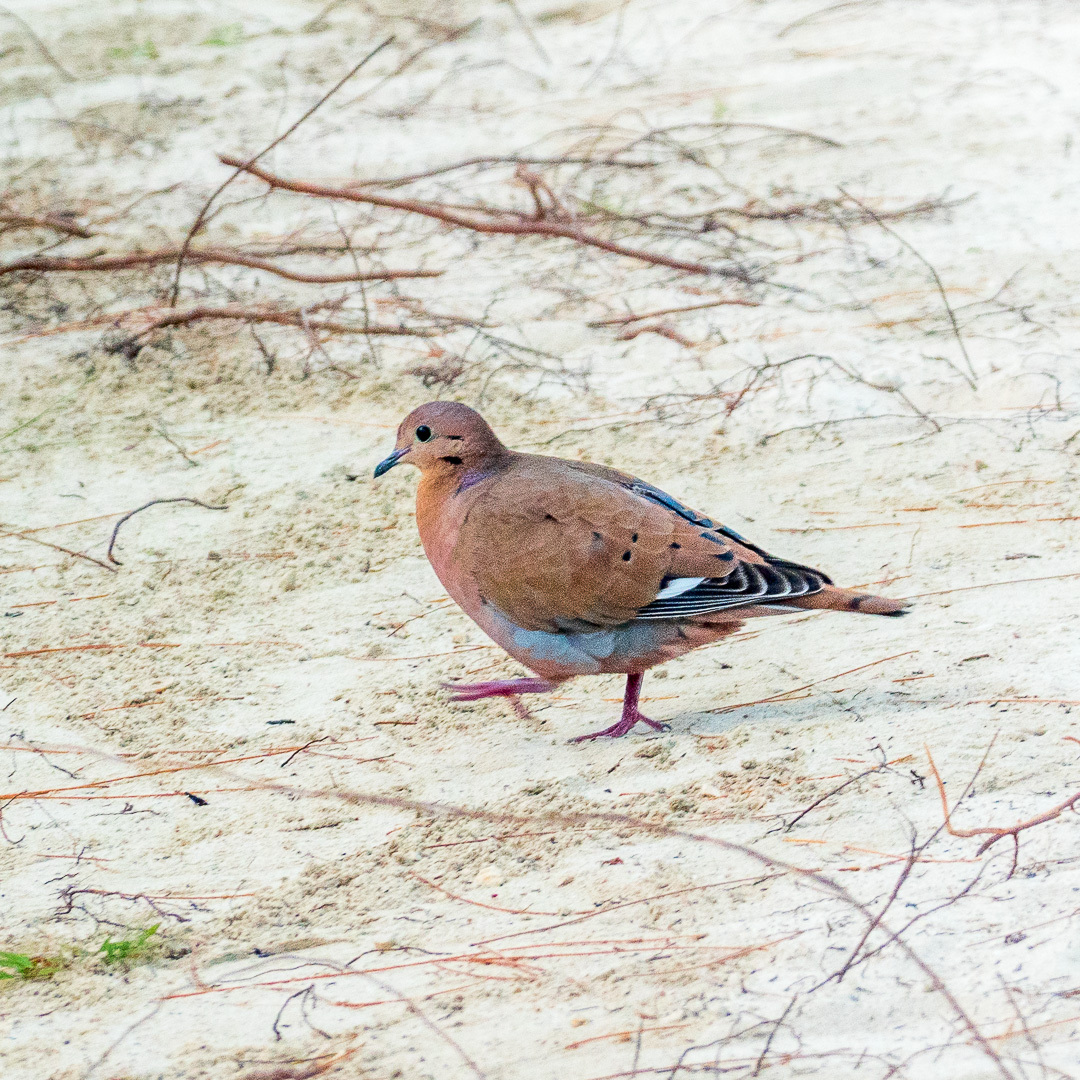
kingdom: Animalia
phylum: Chordata
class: Aves
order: Columbiformes
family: Columbidae
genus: Zenaida
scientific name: Zenaida aurita
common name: Zenaida dove
